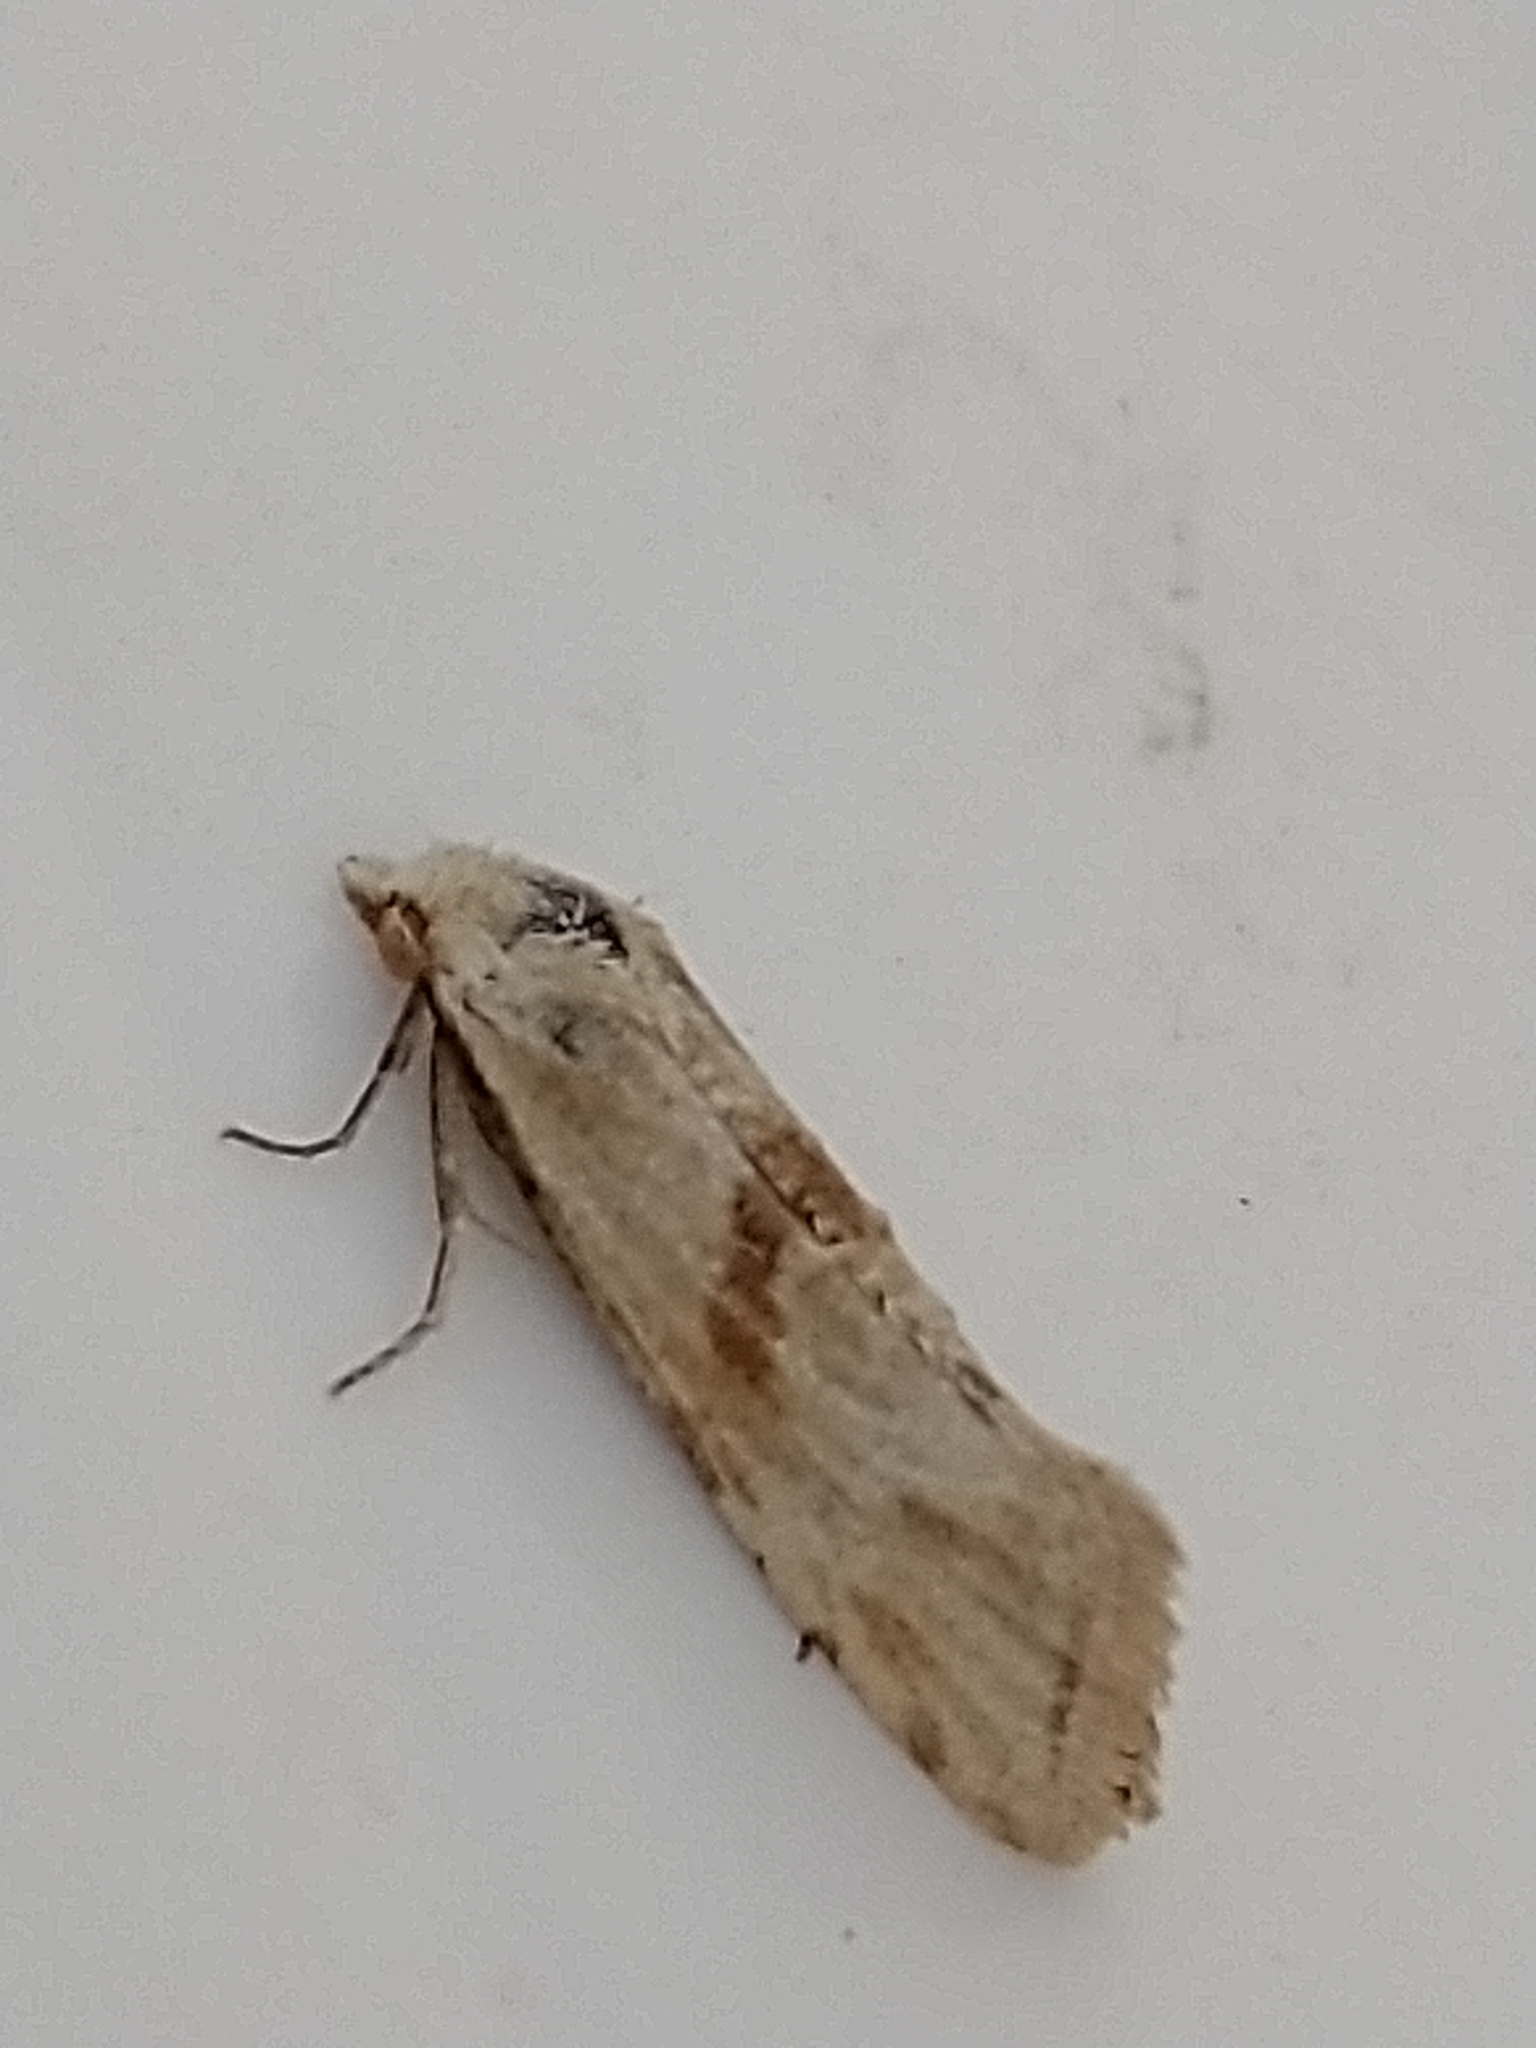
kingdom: Animalia
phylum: Arthropoda
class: Insecta
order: Lepidoptera
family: Tortricidae
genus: Cochylimorpha
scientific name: Cochylimorpha straminea
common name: Straw conch
